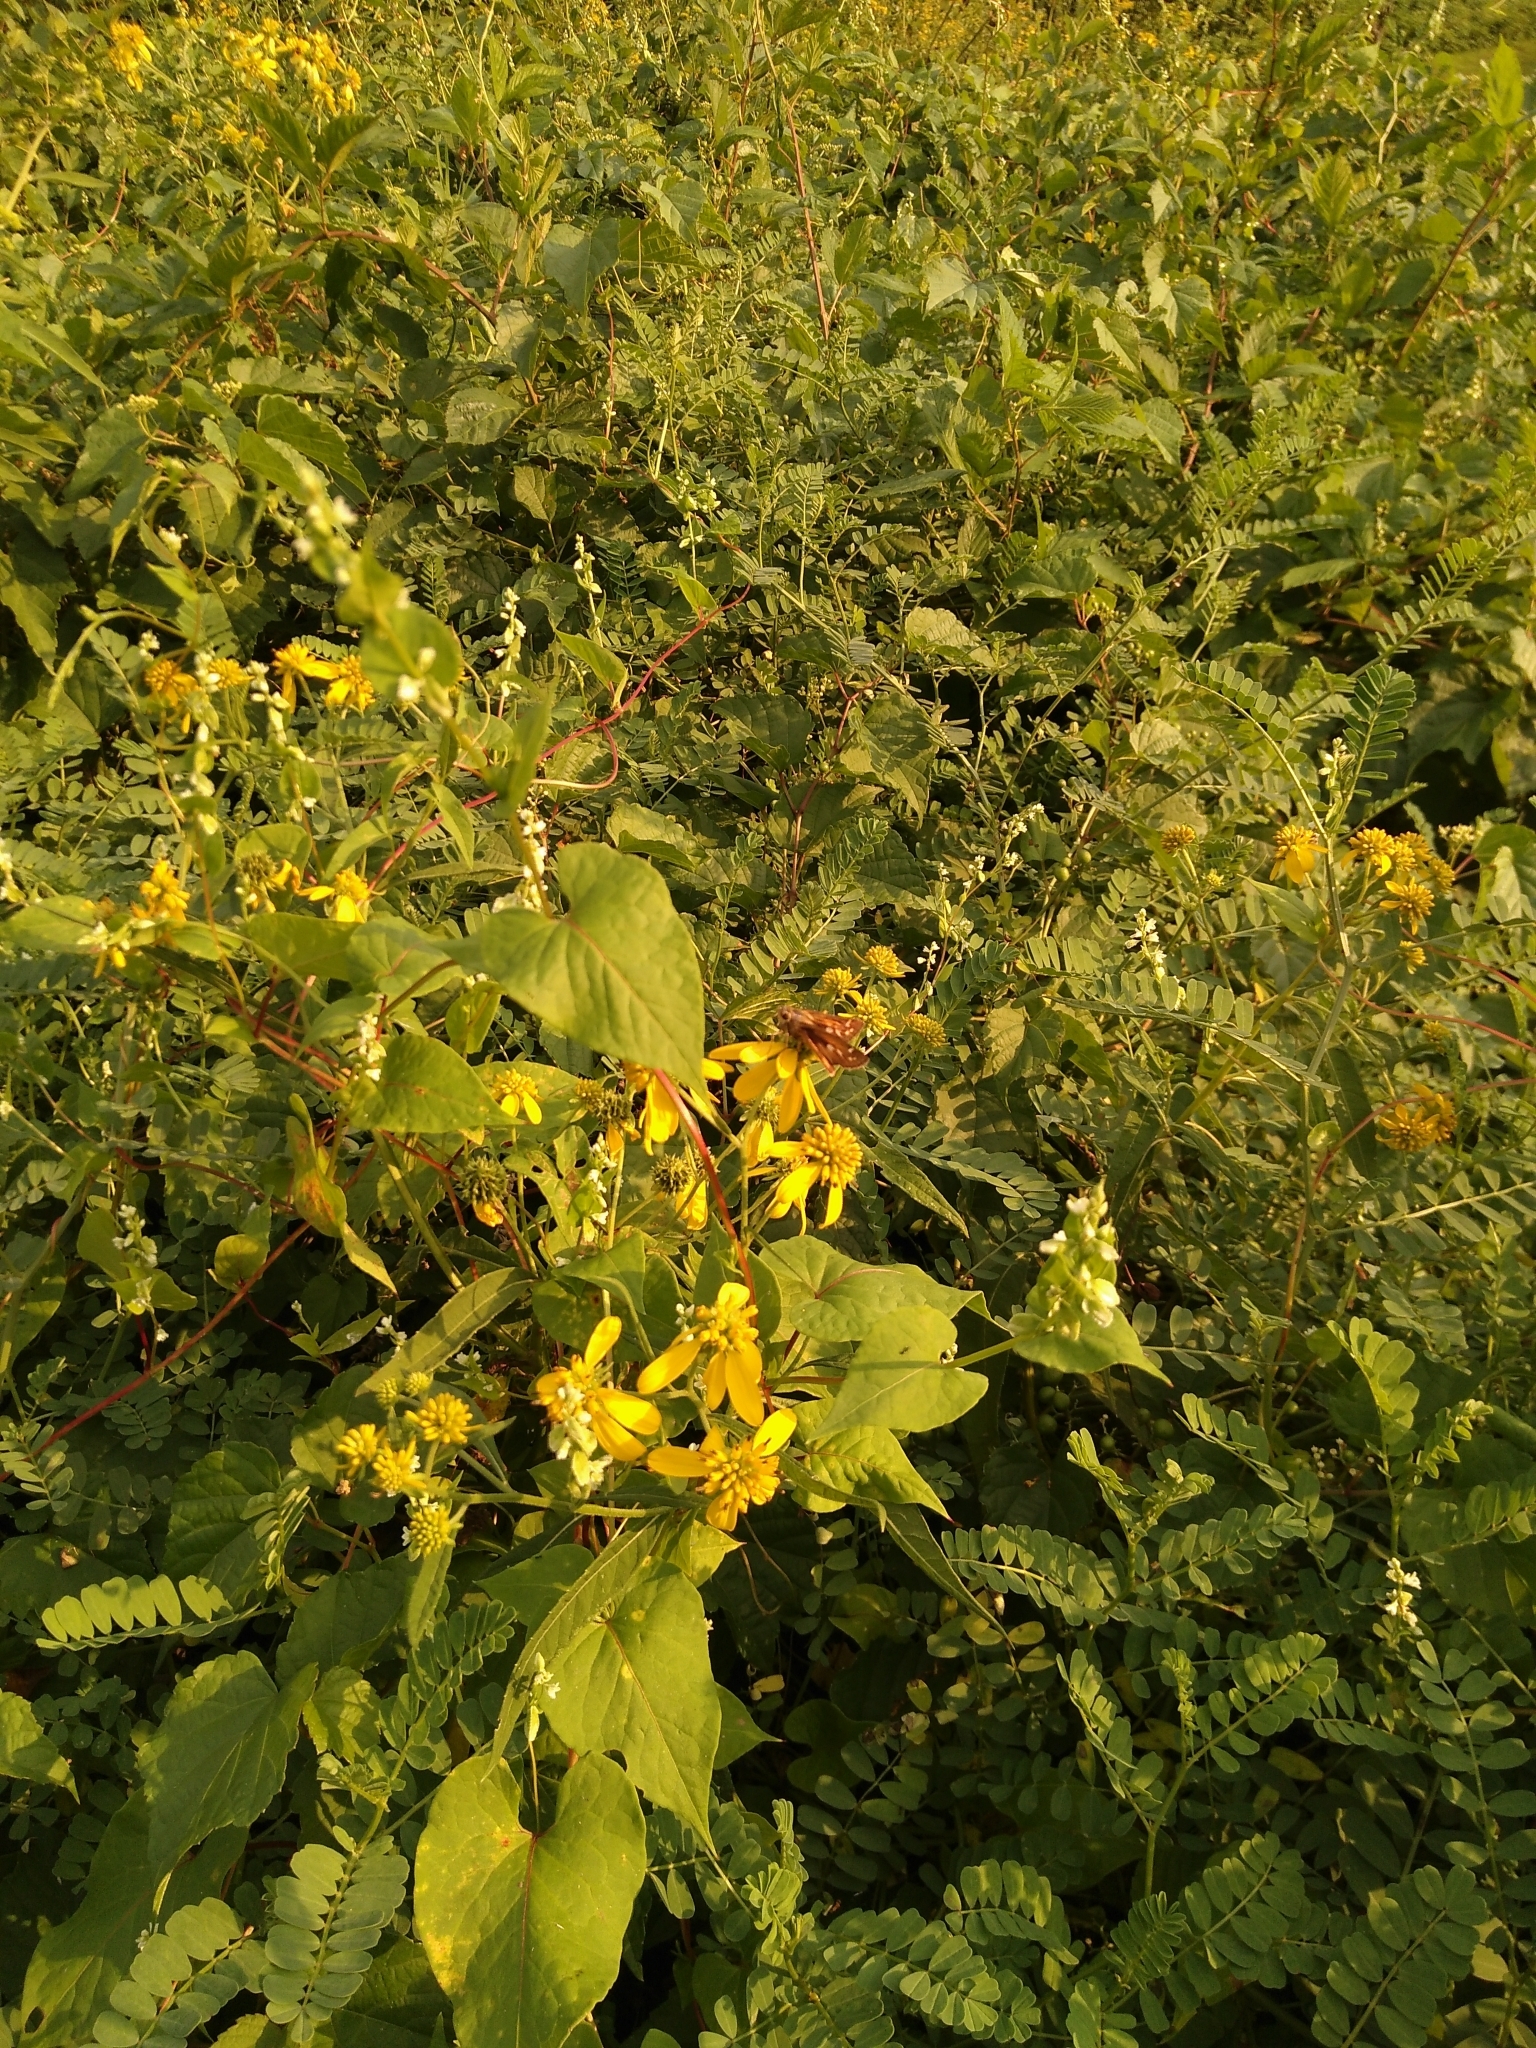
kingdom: Animalia
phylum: Arthropoda
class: Insecta
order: Lepidoptera
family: Hesperiidae
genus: Atalopedes
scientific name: Atalopedes
